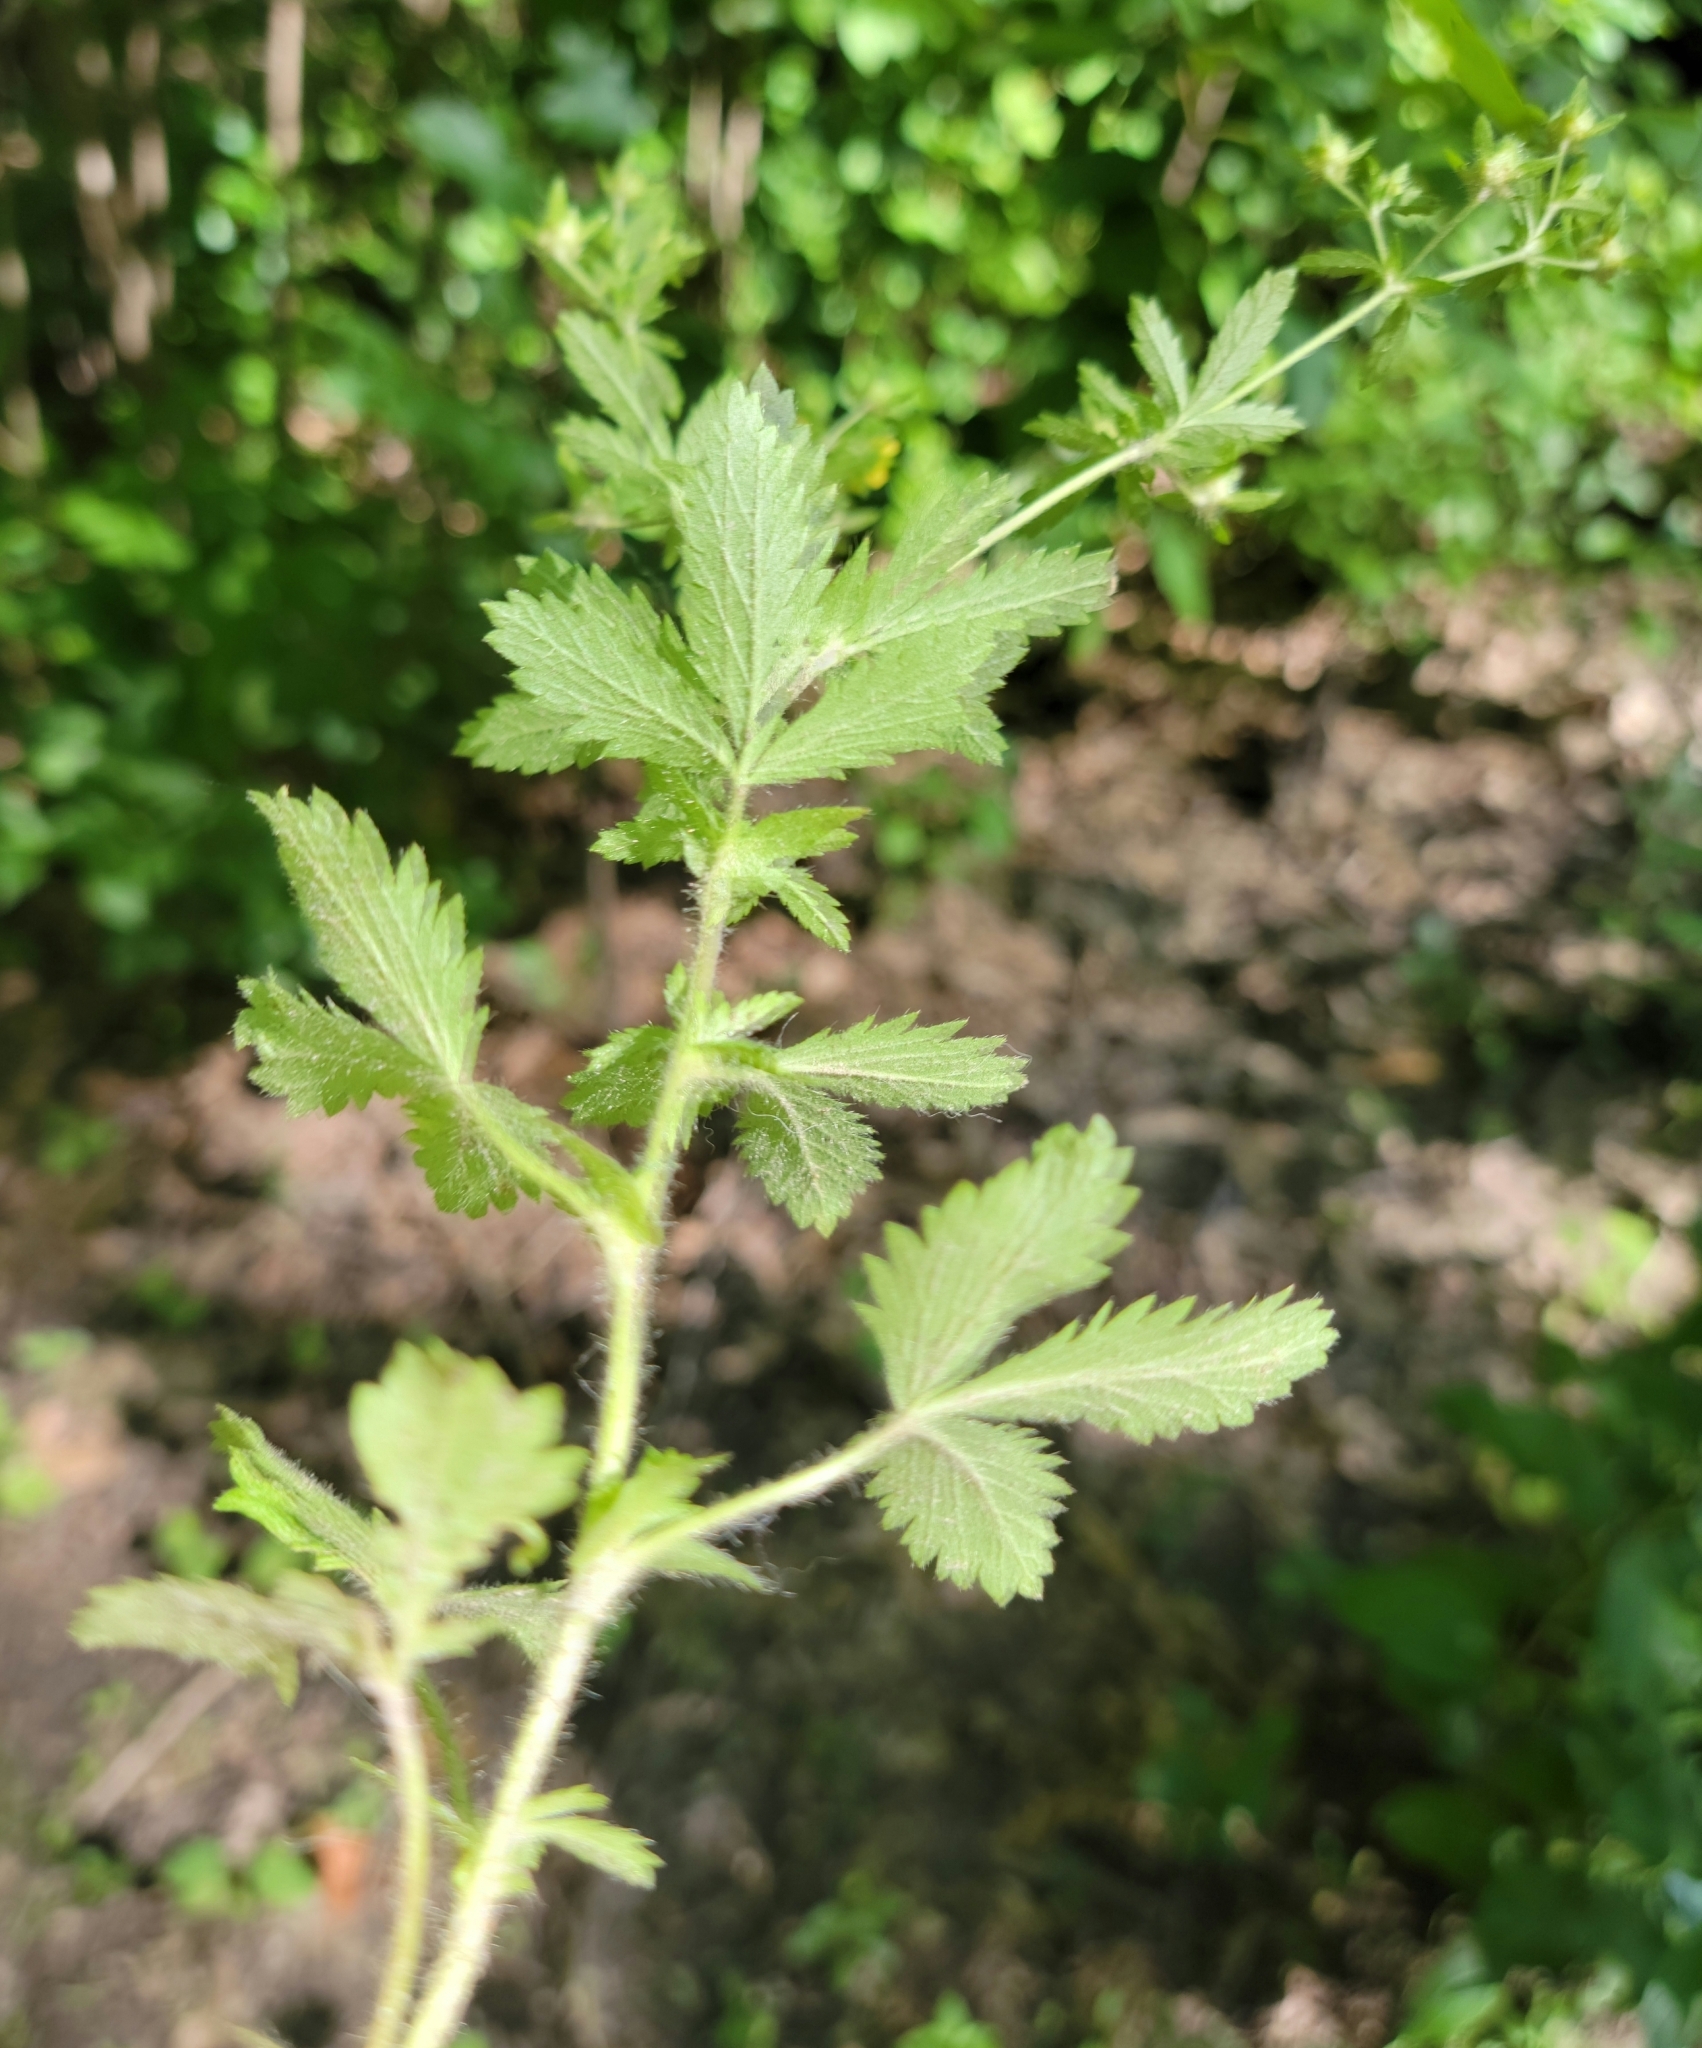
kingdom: Plantae
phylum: Tracheophyta
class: Magnoliopsida
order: Rosales
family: Rosaceae
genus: Potentilla
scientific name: Potentilla norvegica
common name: Ternate-leaved cinquefoil
